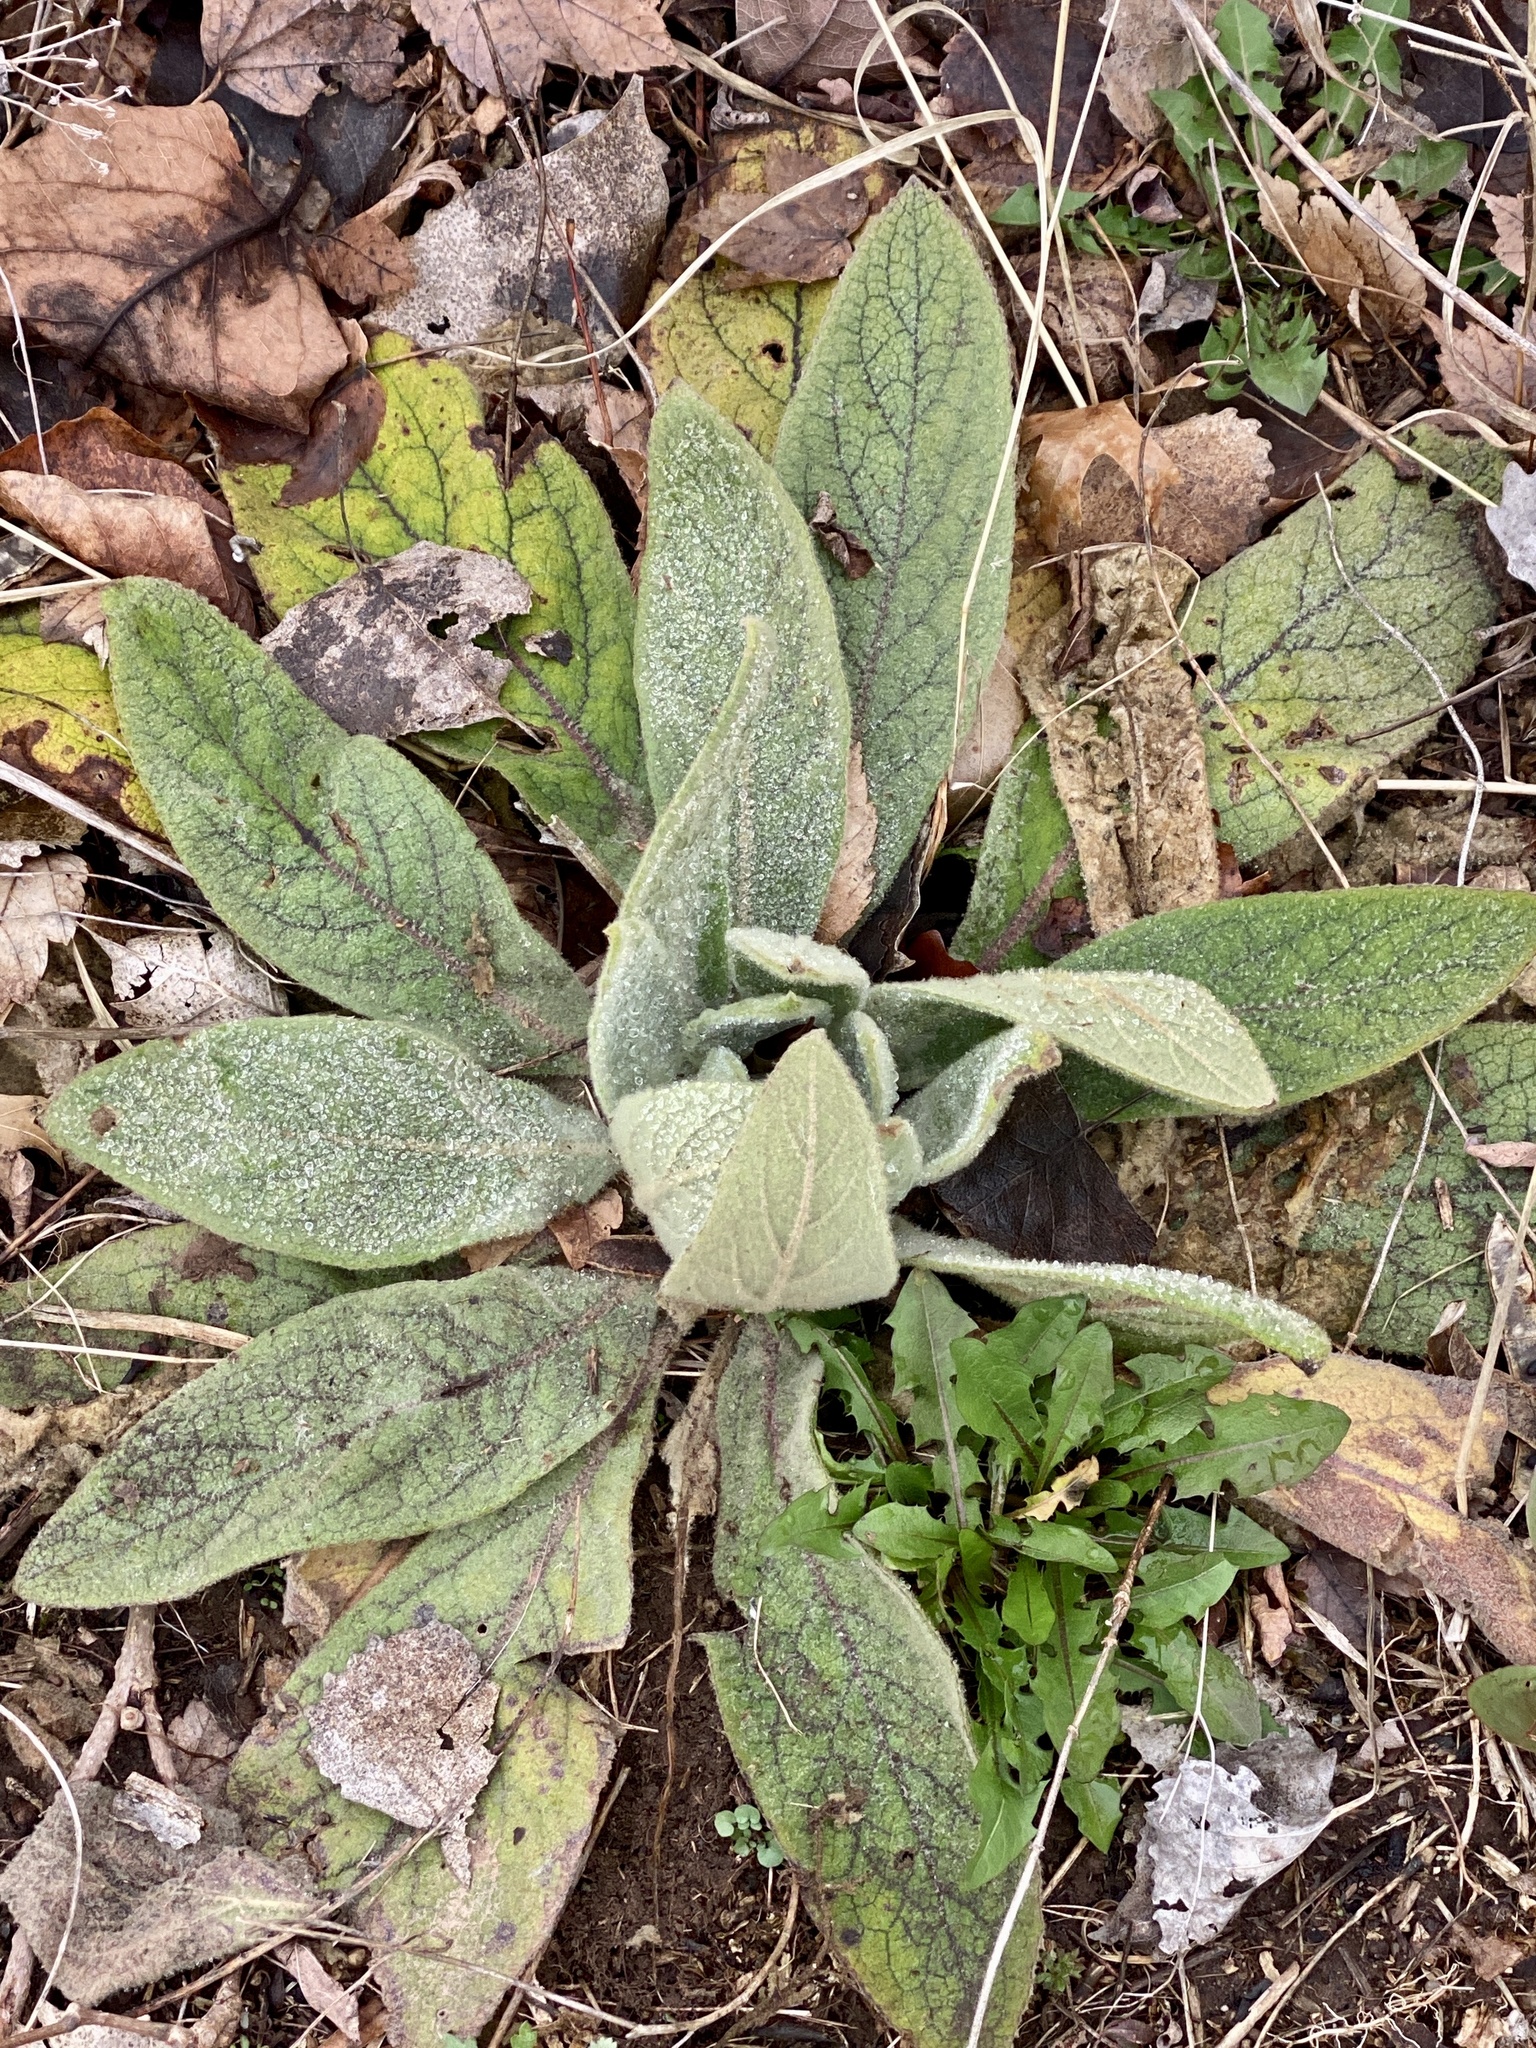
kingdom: Plantae
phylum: Tracheophyta
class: Magnoliopsida
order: Lamiales
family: Scrophulariaceae
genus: Verbascum
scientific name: Verbascum thapsus
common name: Common mullein
